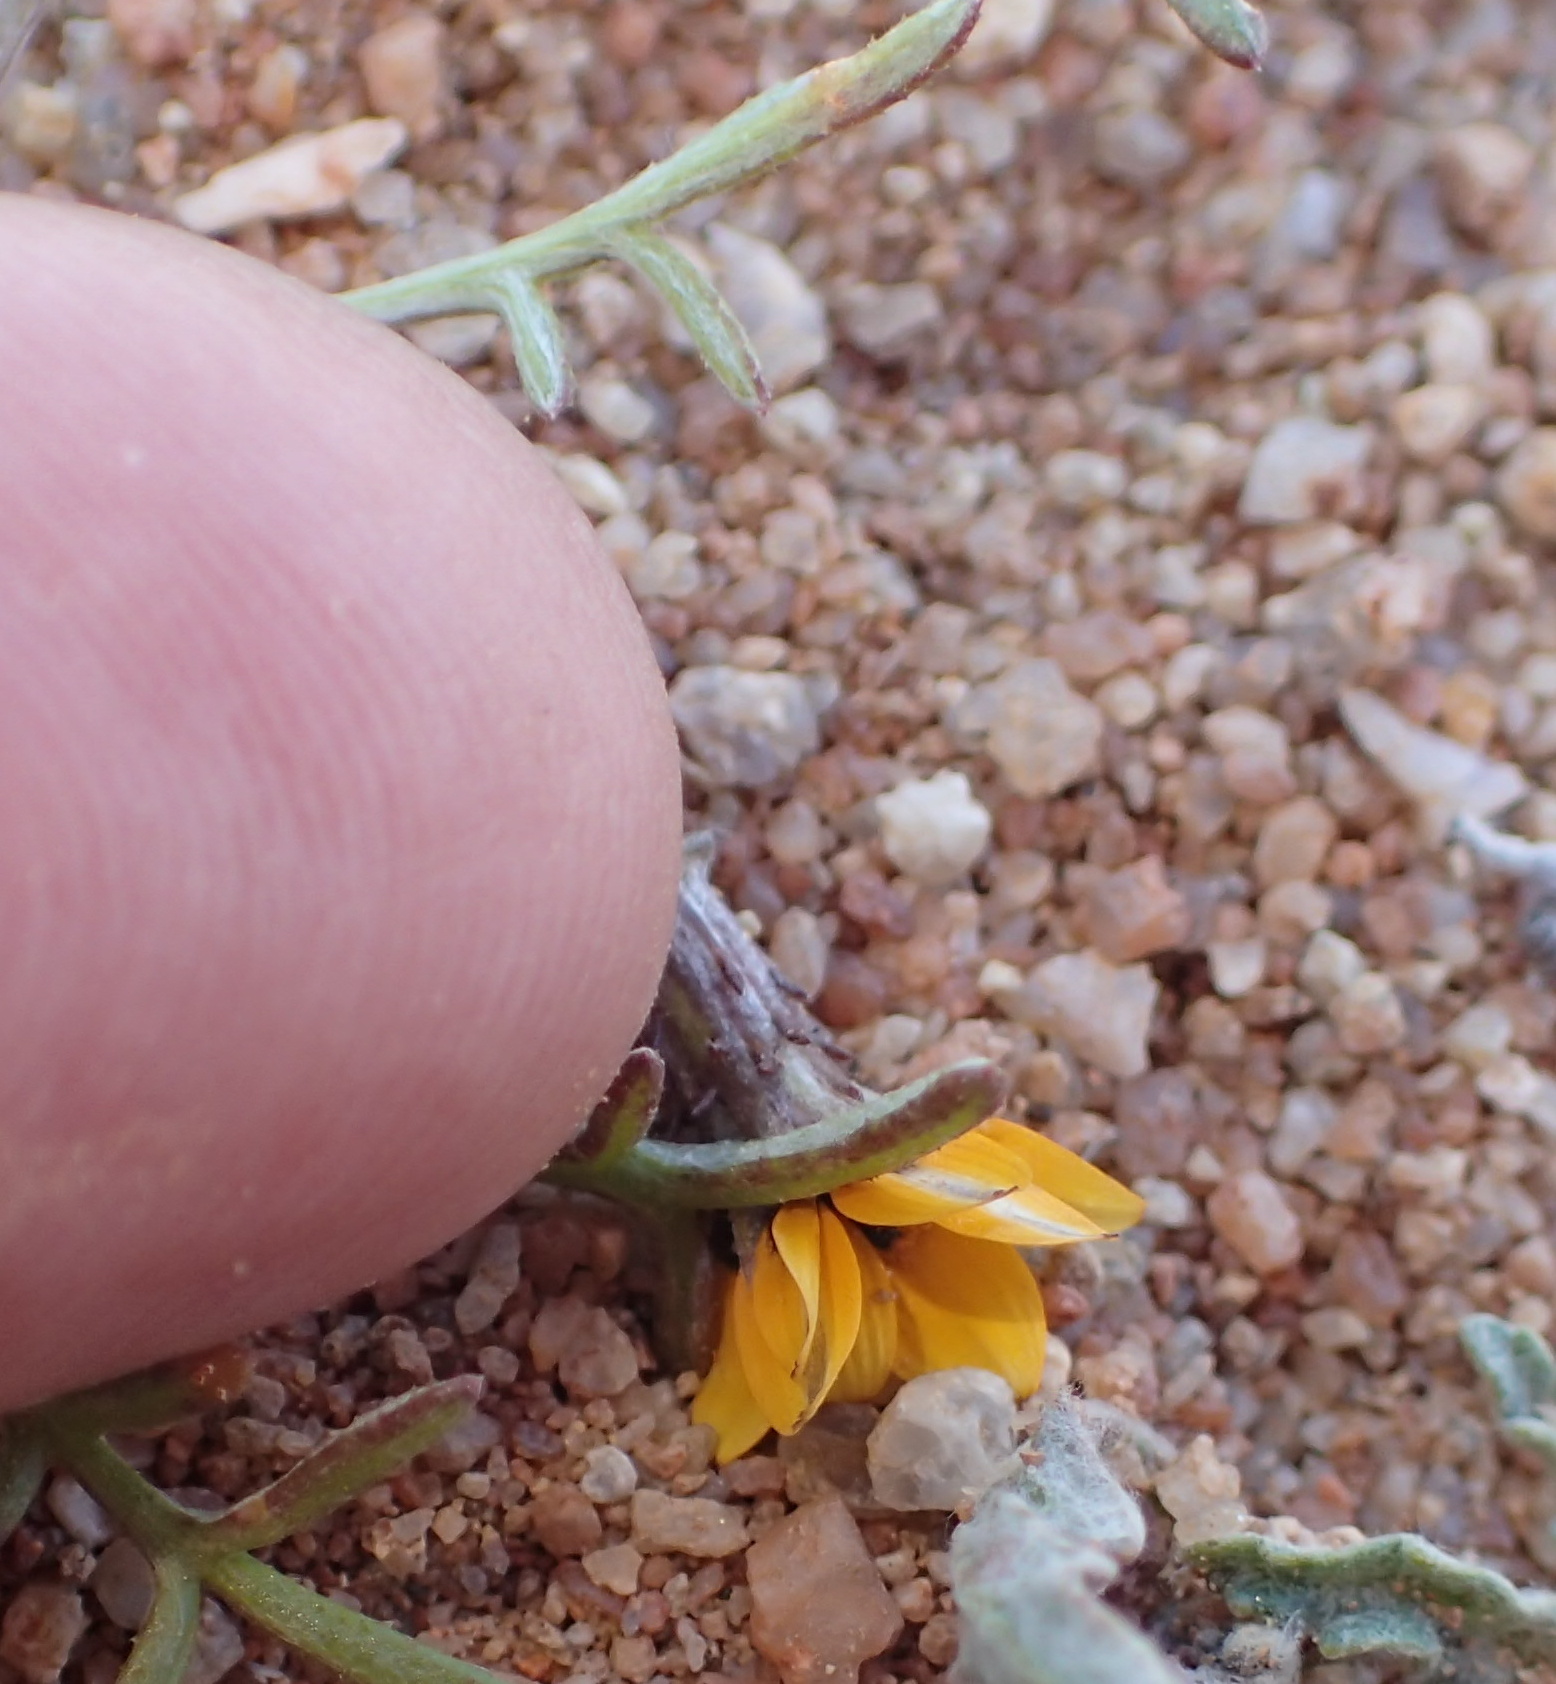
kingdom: Plantae
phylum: Tracheophyta
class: Magnoliopsida
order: Asterales
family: Asteraceae
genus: Gazania
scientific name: Gazania tenuifolia
